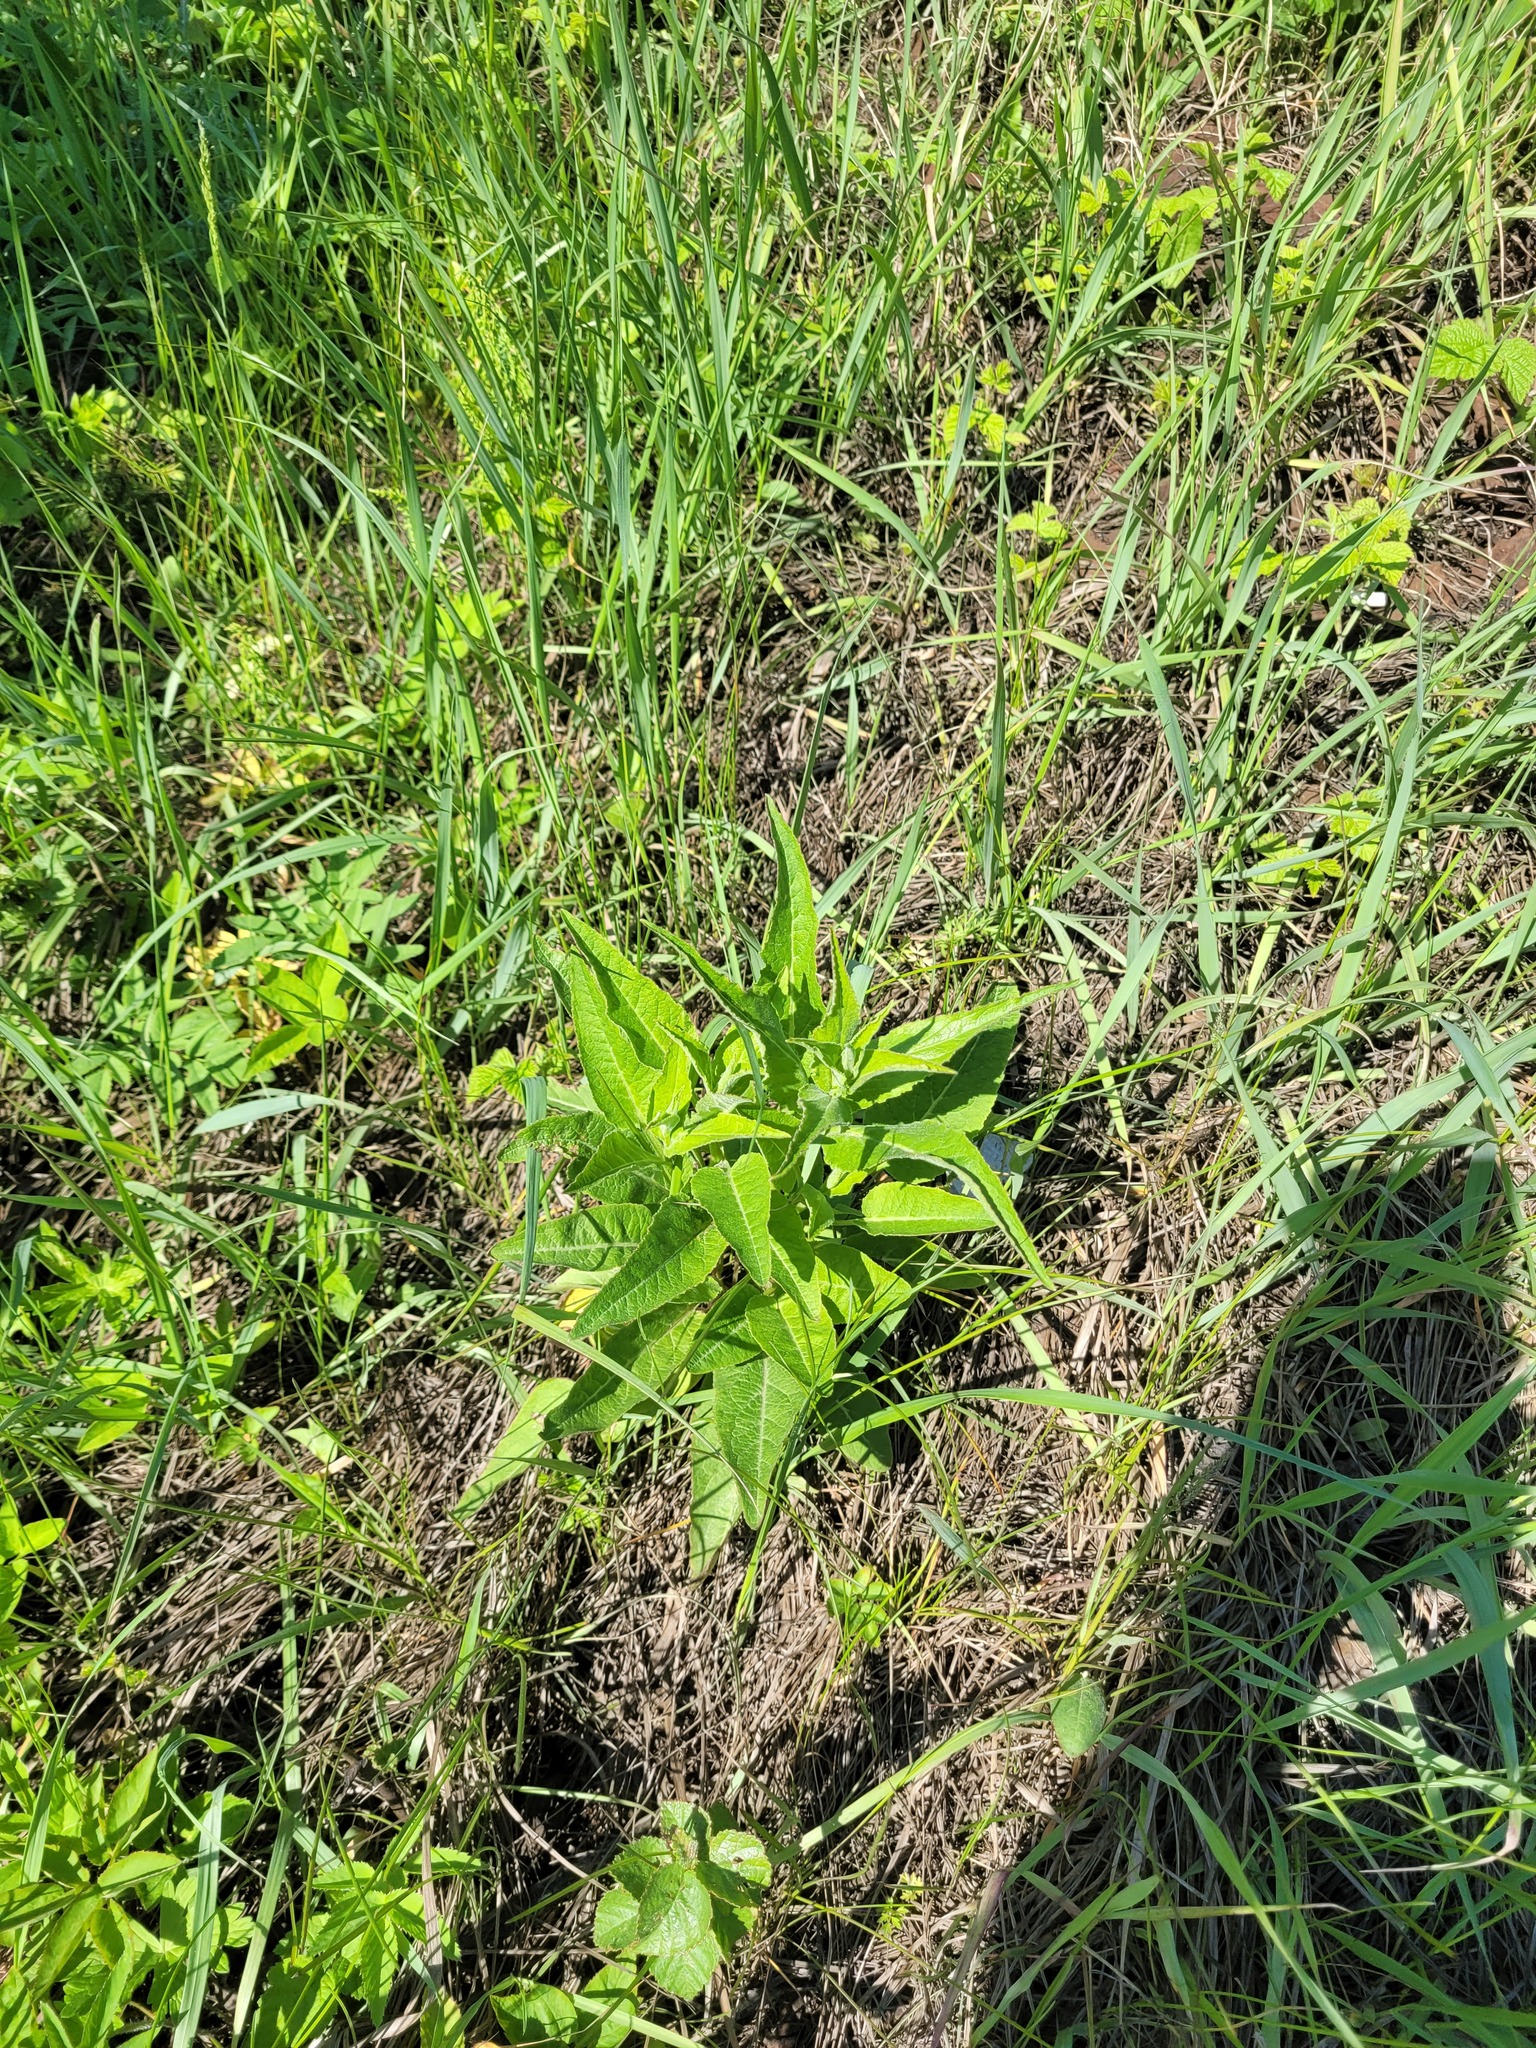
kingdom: Plantae
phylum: Tracheophyta
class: Magnoliopsida
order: Asterales
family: Campanulaceae
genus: Campanula
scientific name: Campanula glomerata
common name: Clustered bellflower
